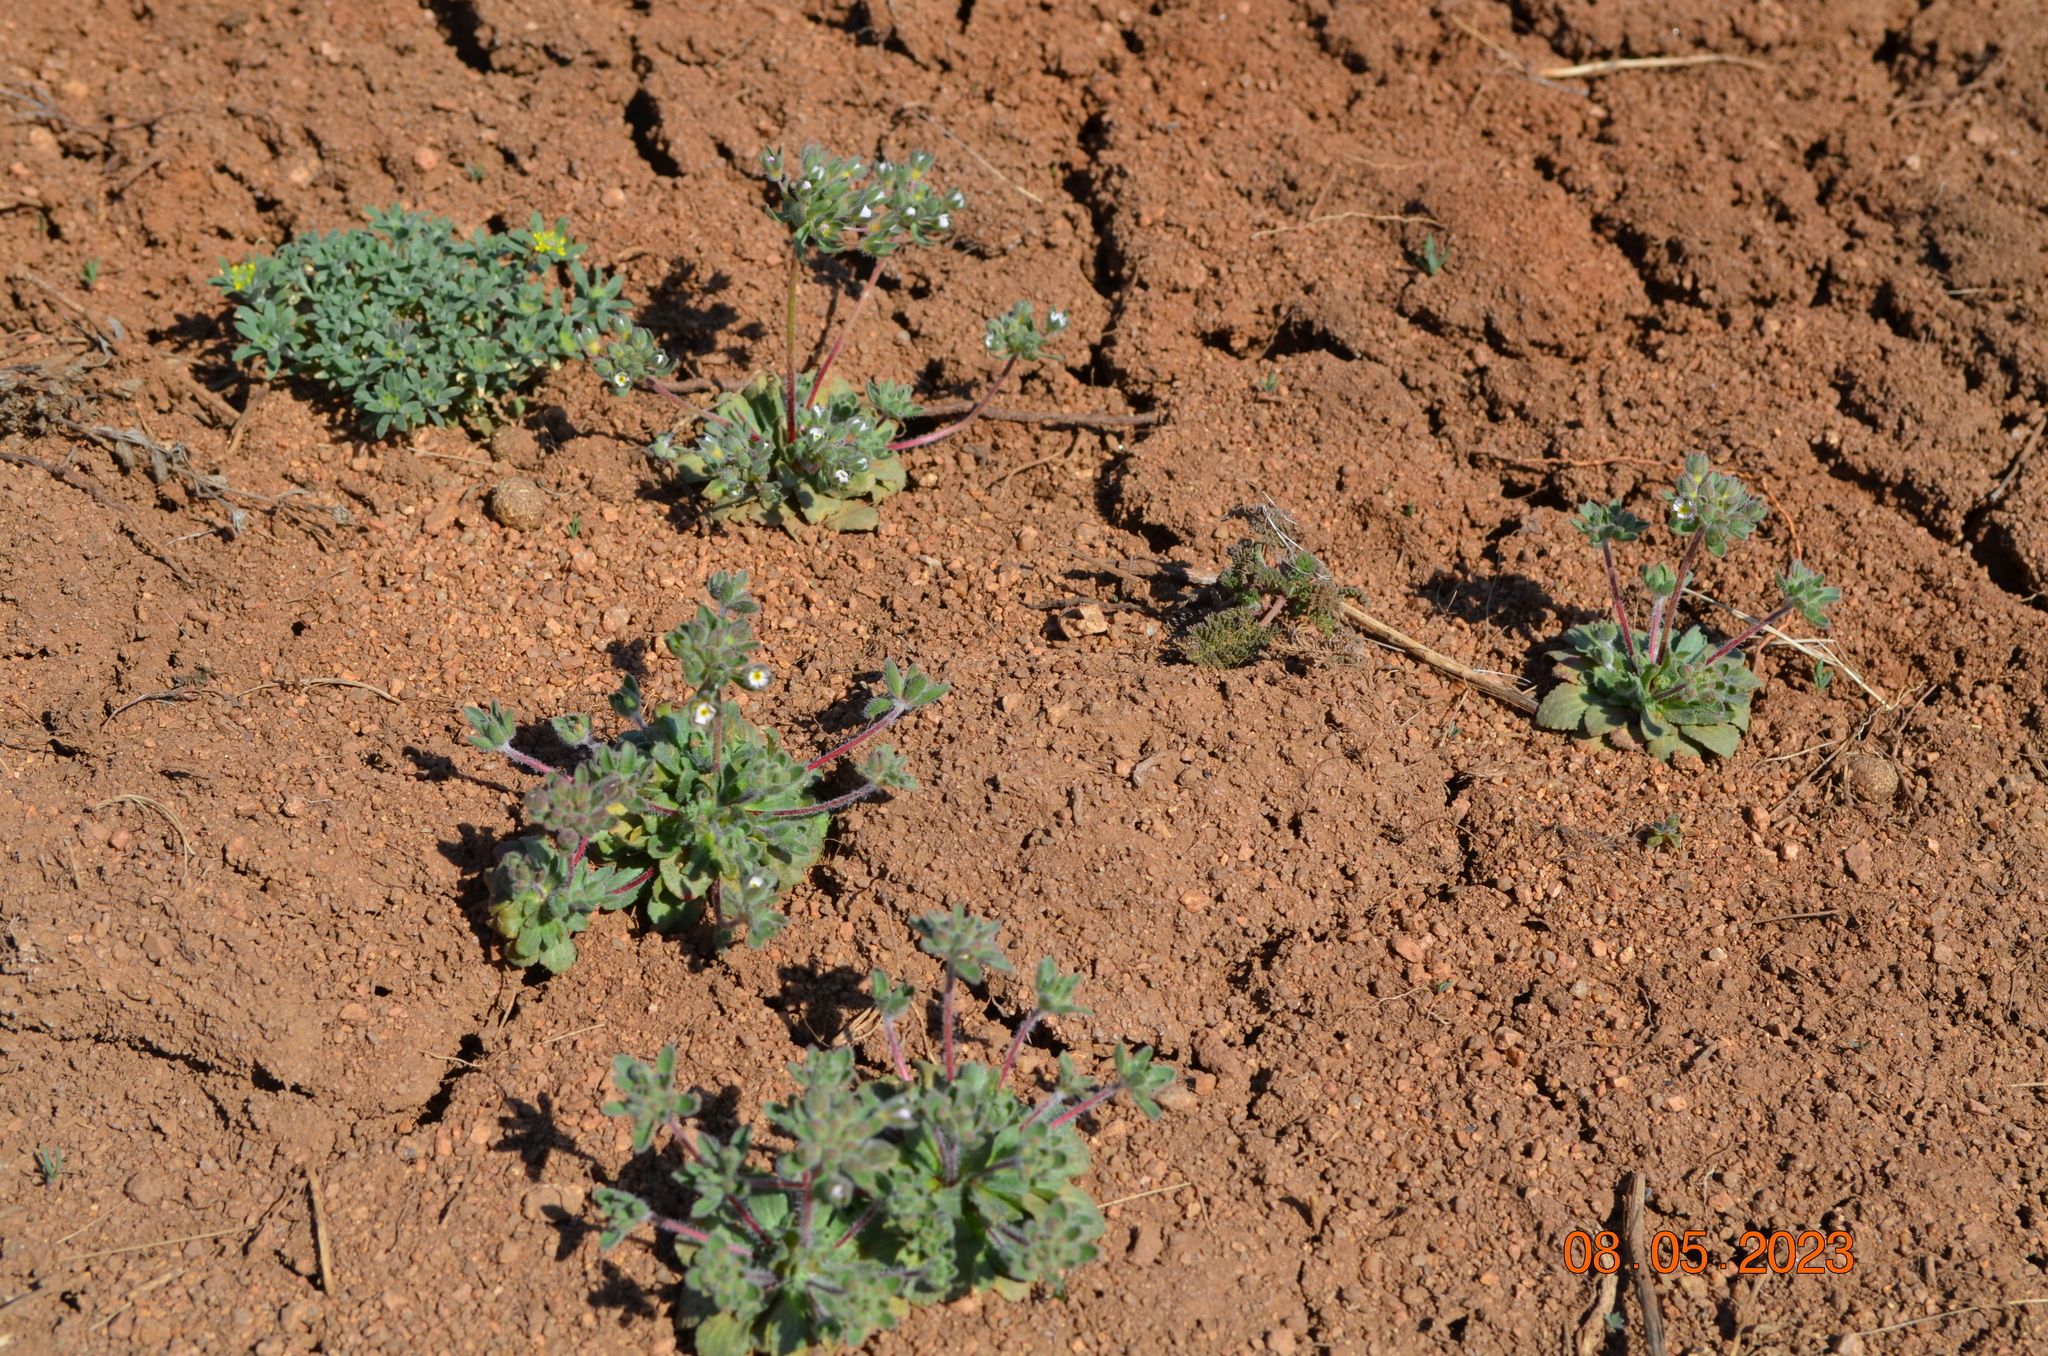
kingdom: Plantae
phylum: Tracheophyta
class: Magnoliopsida
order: Ericales
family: Primulaceae
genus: Androsace
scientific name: Androsace maxima
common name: Annual androsace
